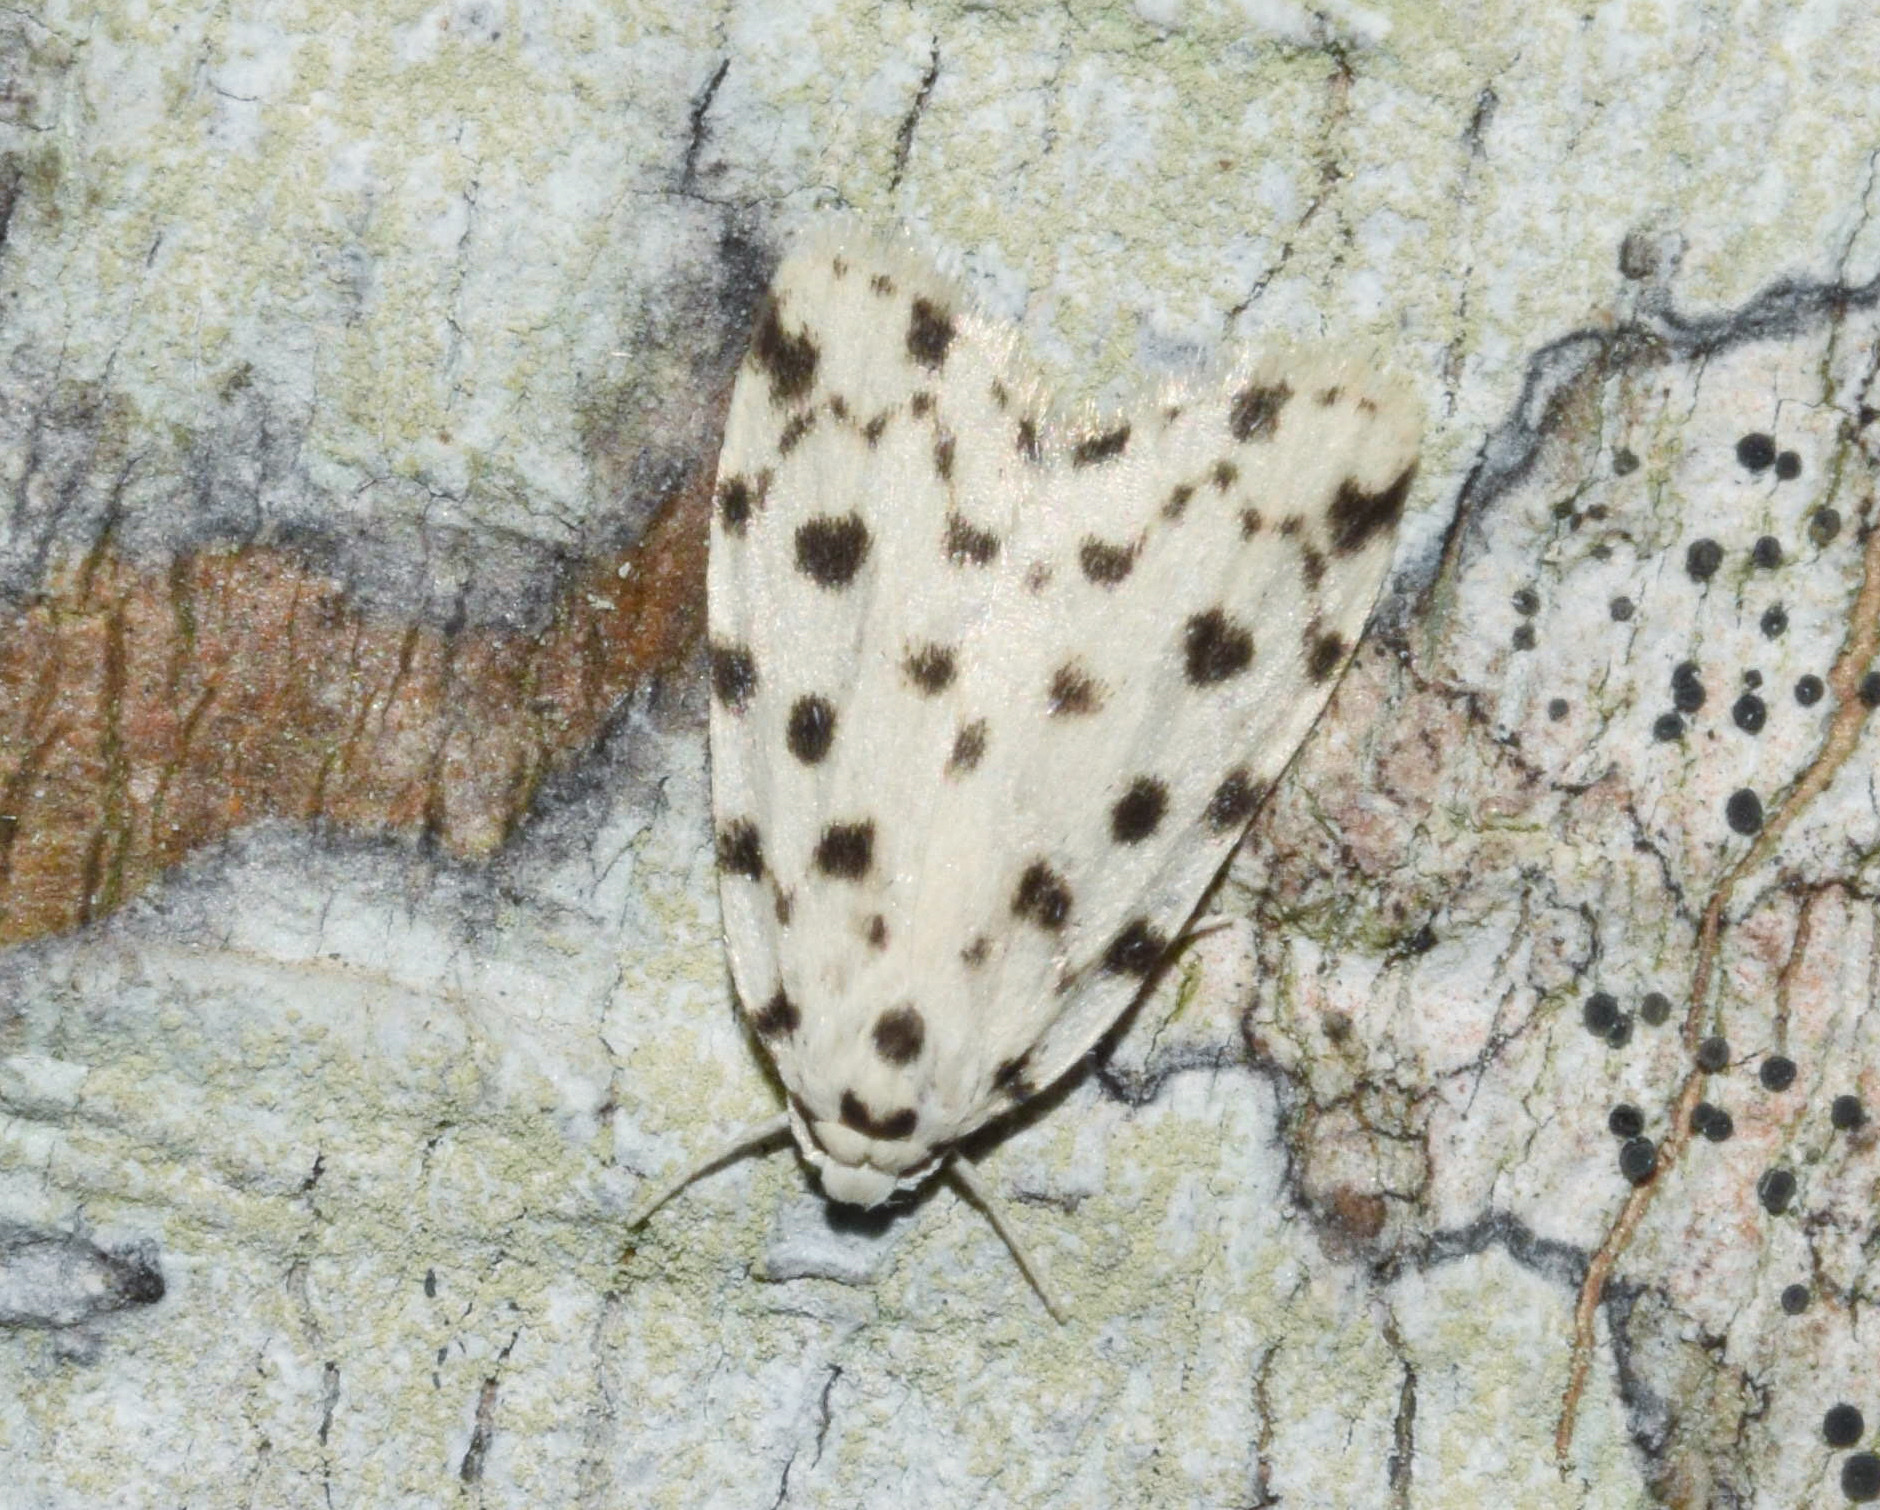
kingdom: Animalia
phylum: Arthropoda
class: Insecta
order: Lepidoptera
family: Erebidae
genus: Siccia
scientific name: Siccia caffra
